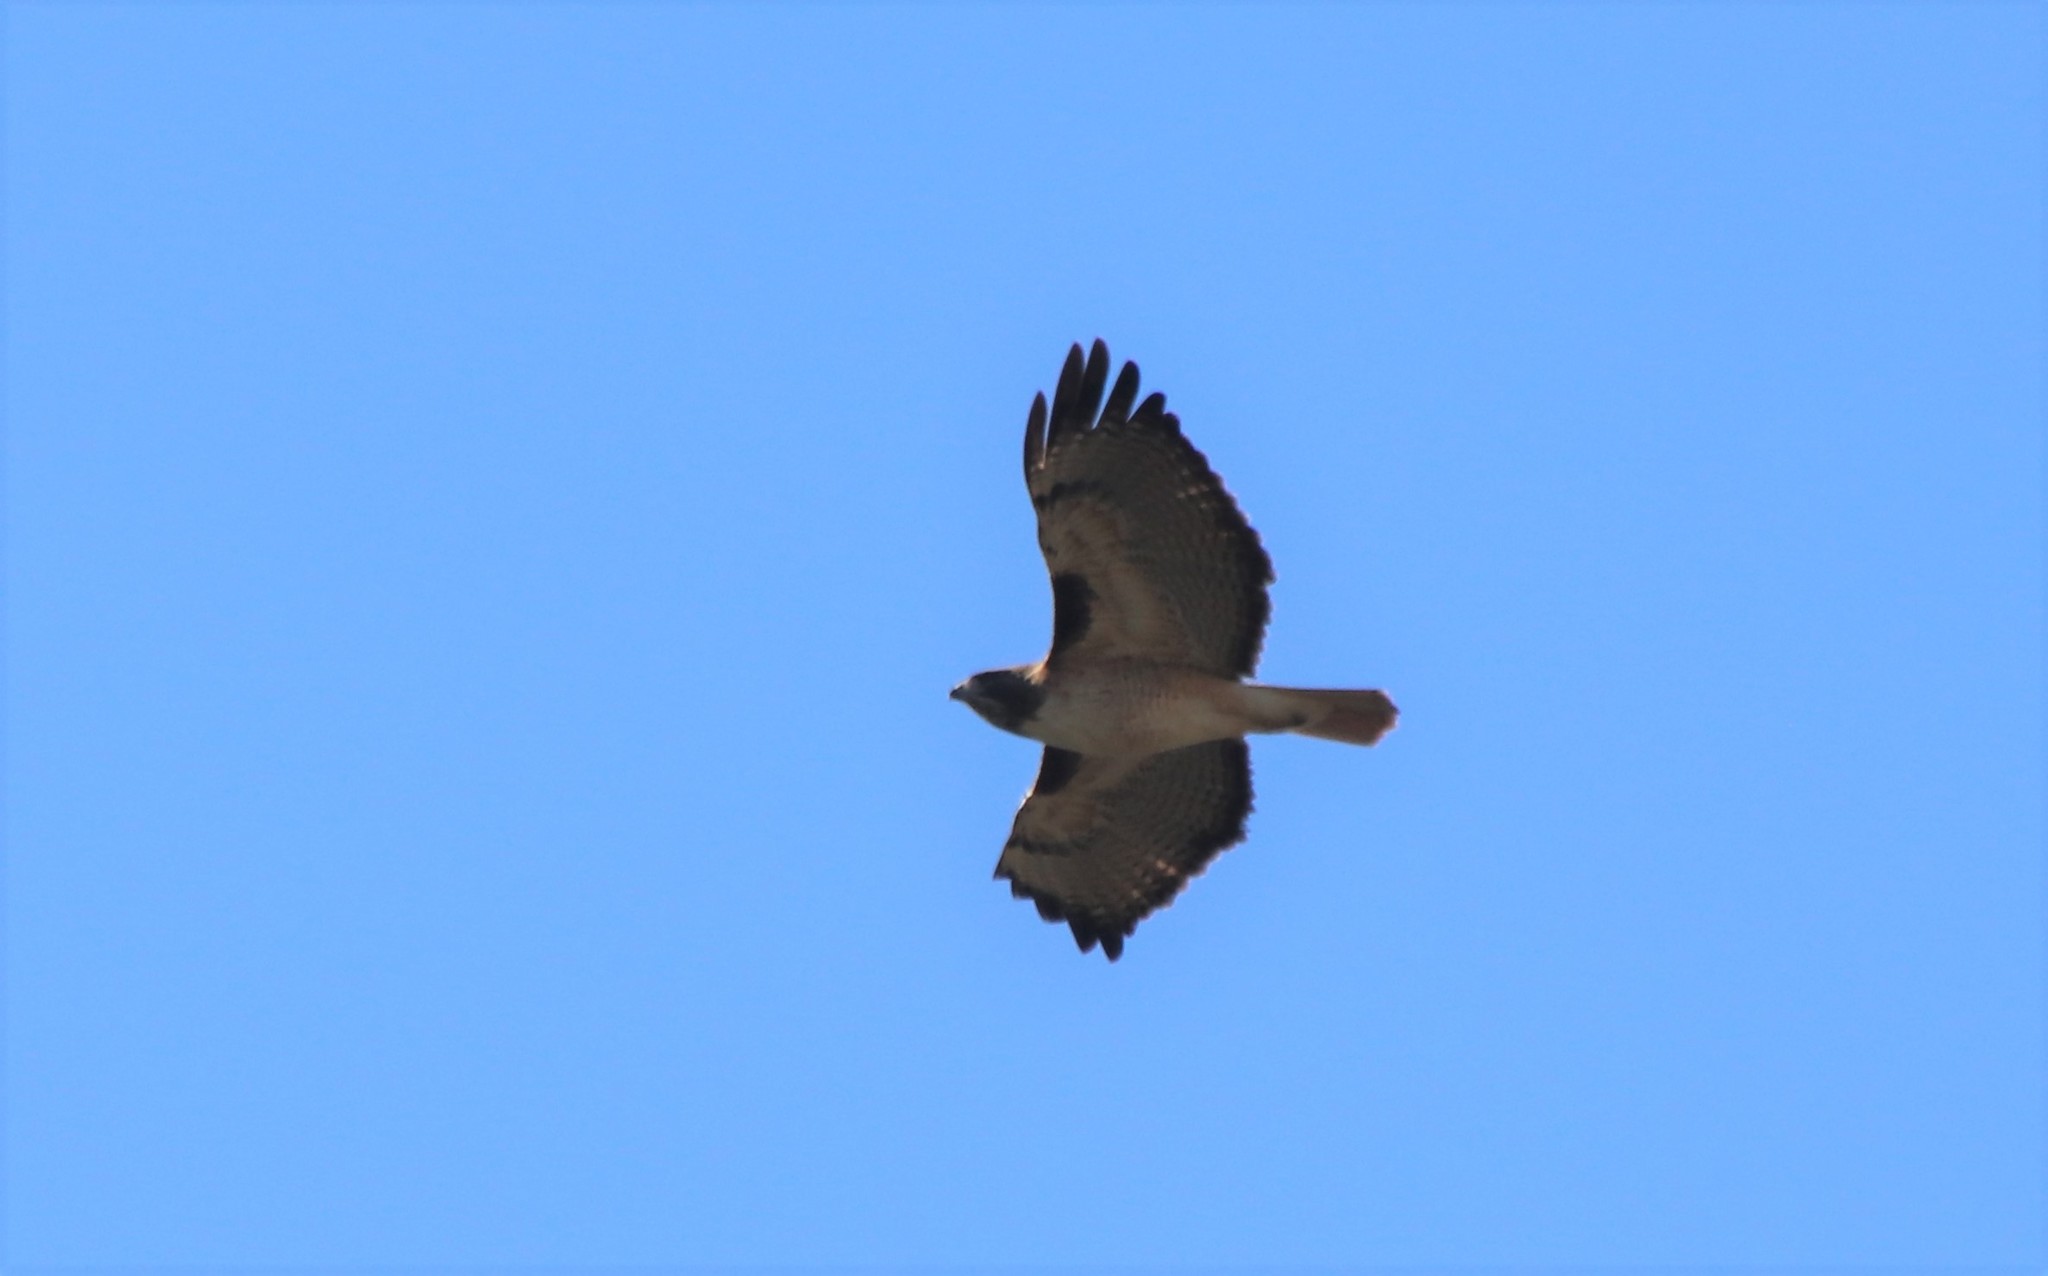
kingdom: Animalia
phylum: Chordata
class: Aves
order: Accipitriformes
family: Accipitridae
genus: Buteo
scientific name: Buteo jamaicensis
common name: Red-tailed hawk
